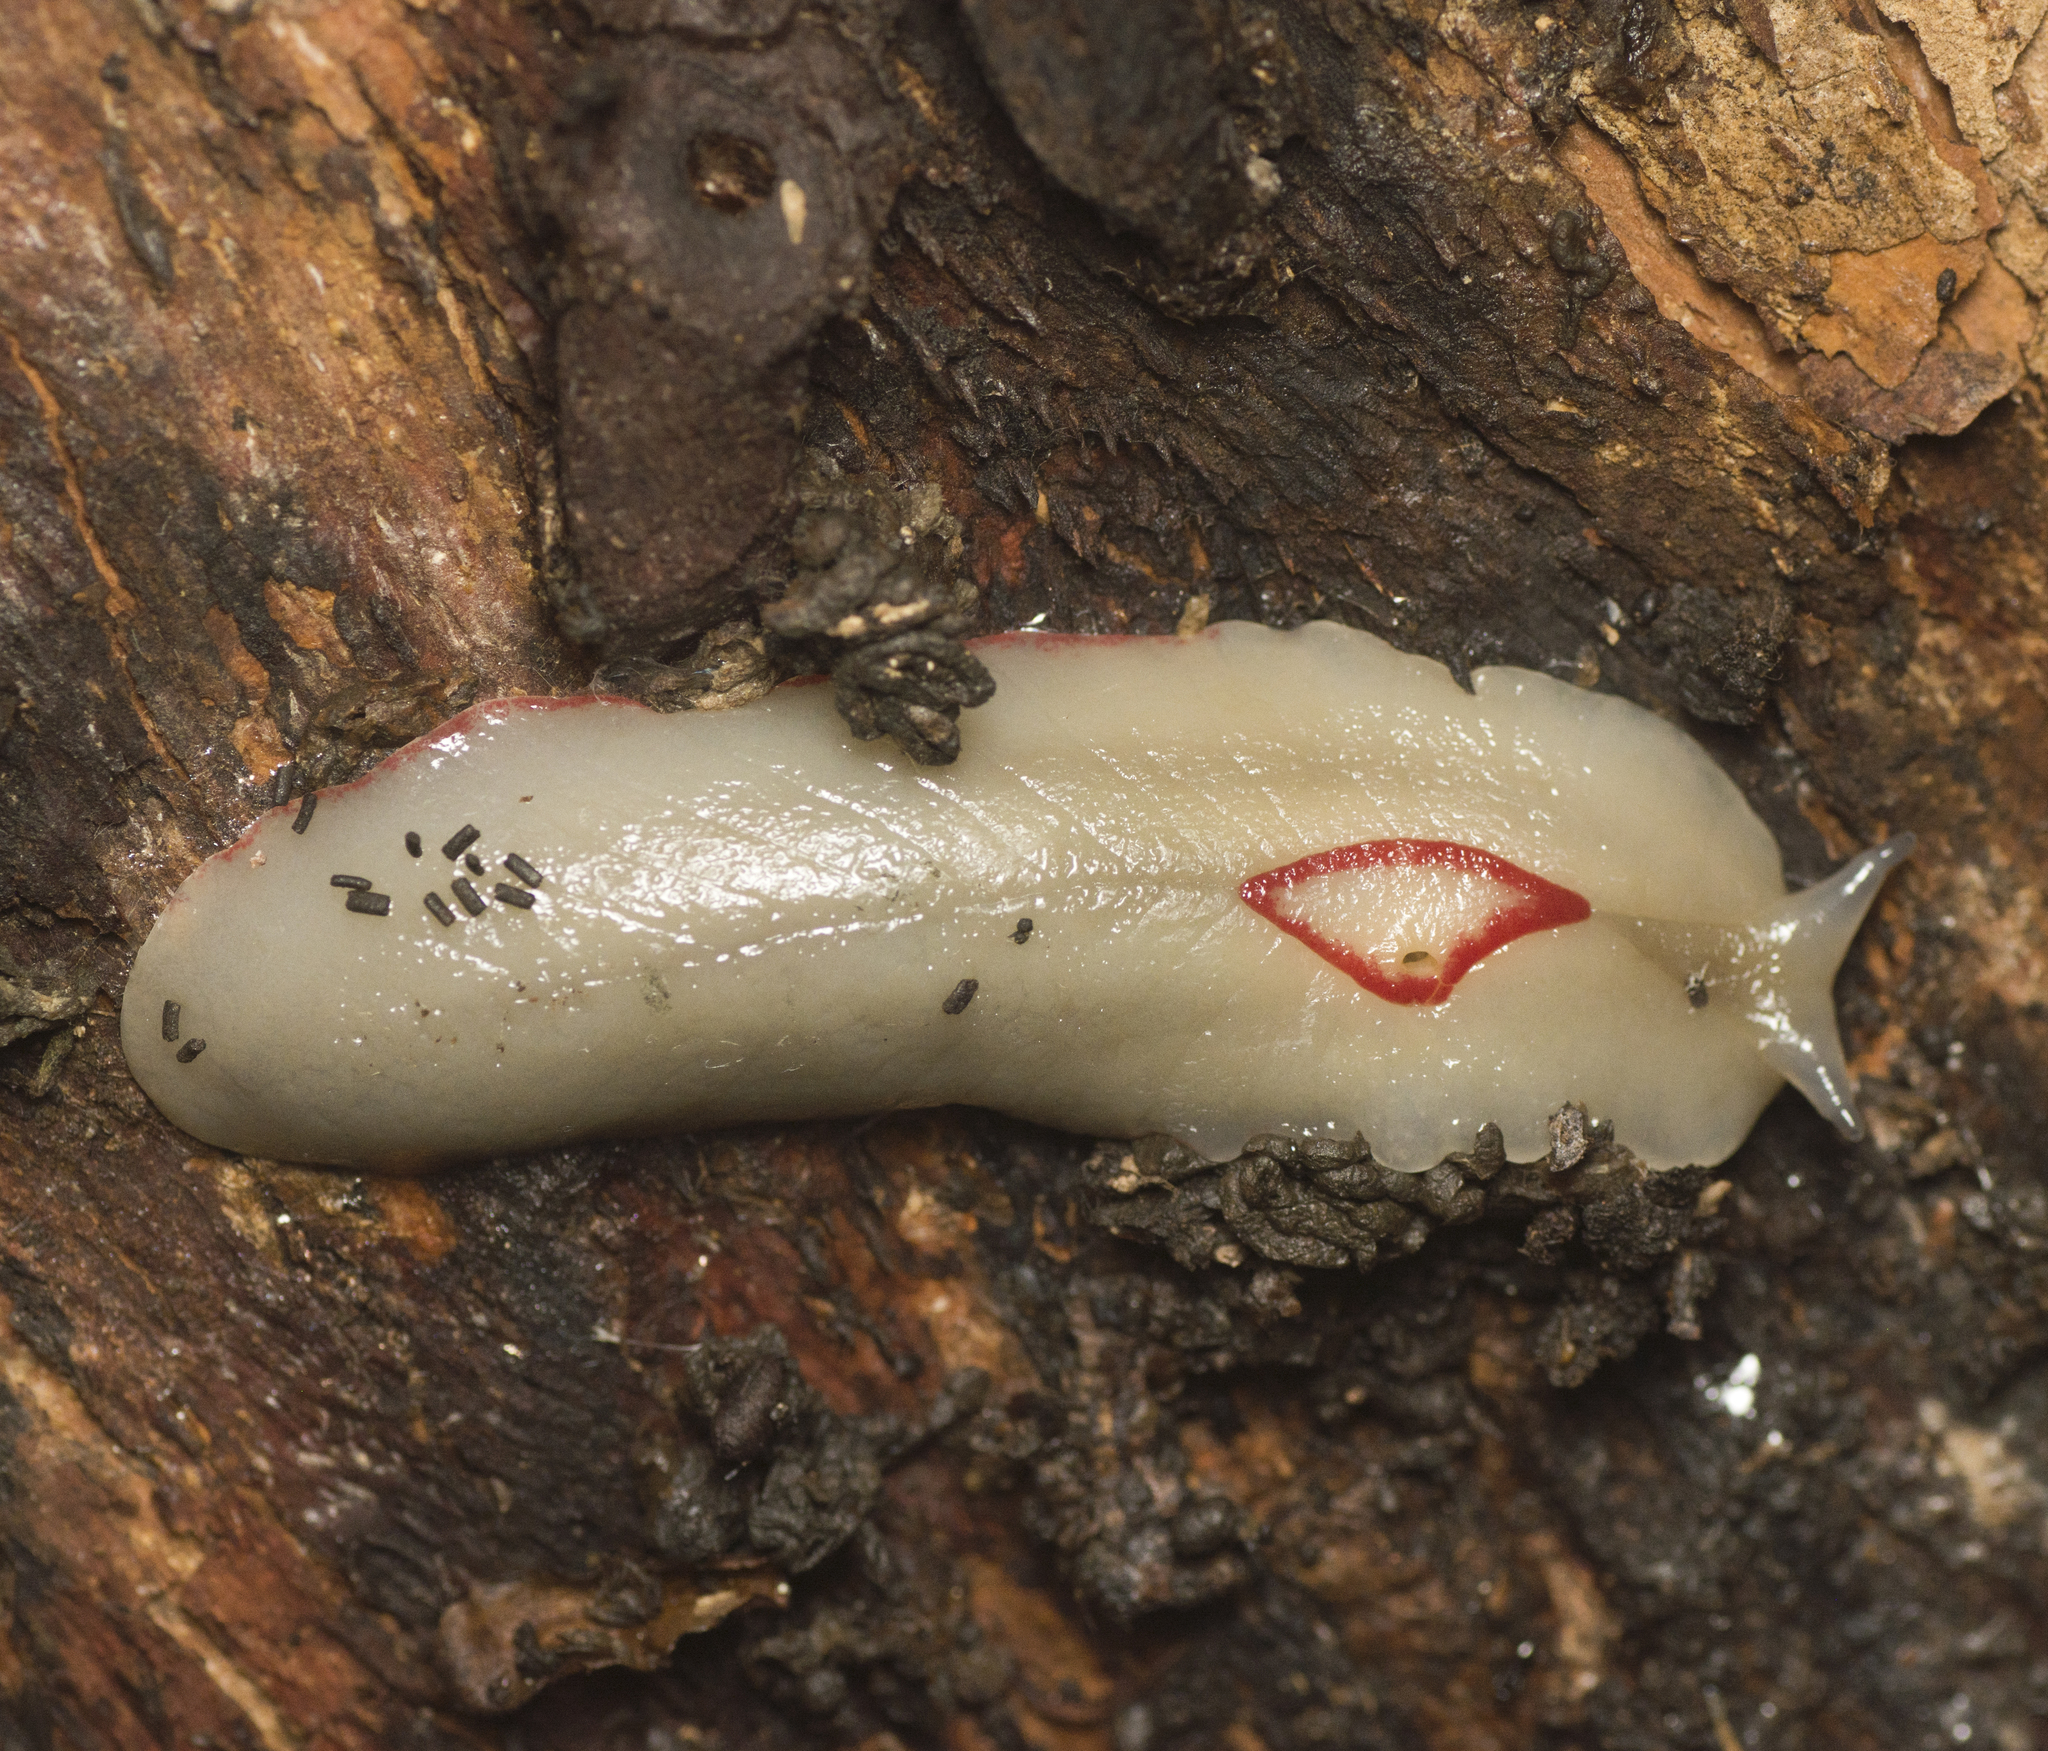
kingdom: Animalia
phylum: Mollusca
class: Gastropoda
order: Stylommatophora
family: Athoracophoridae
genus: Triboniophorus
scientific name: Triboniophorus graeffei
